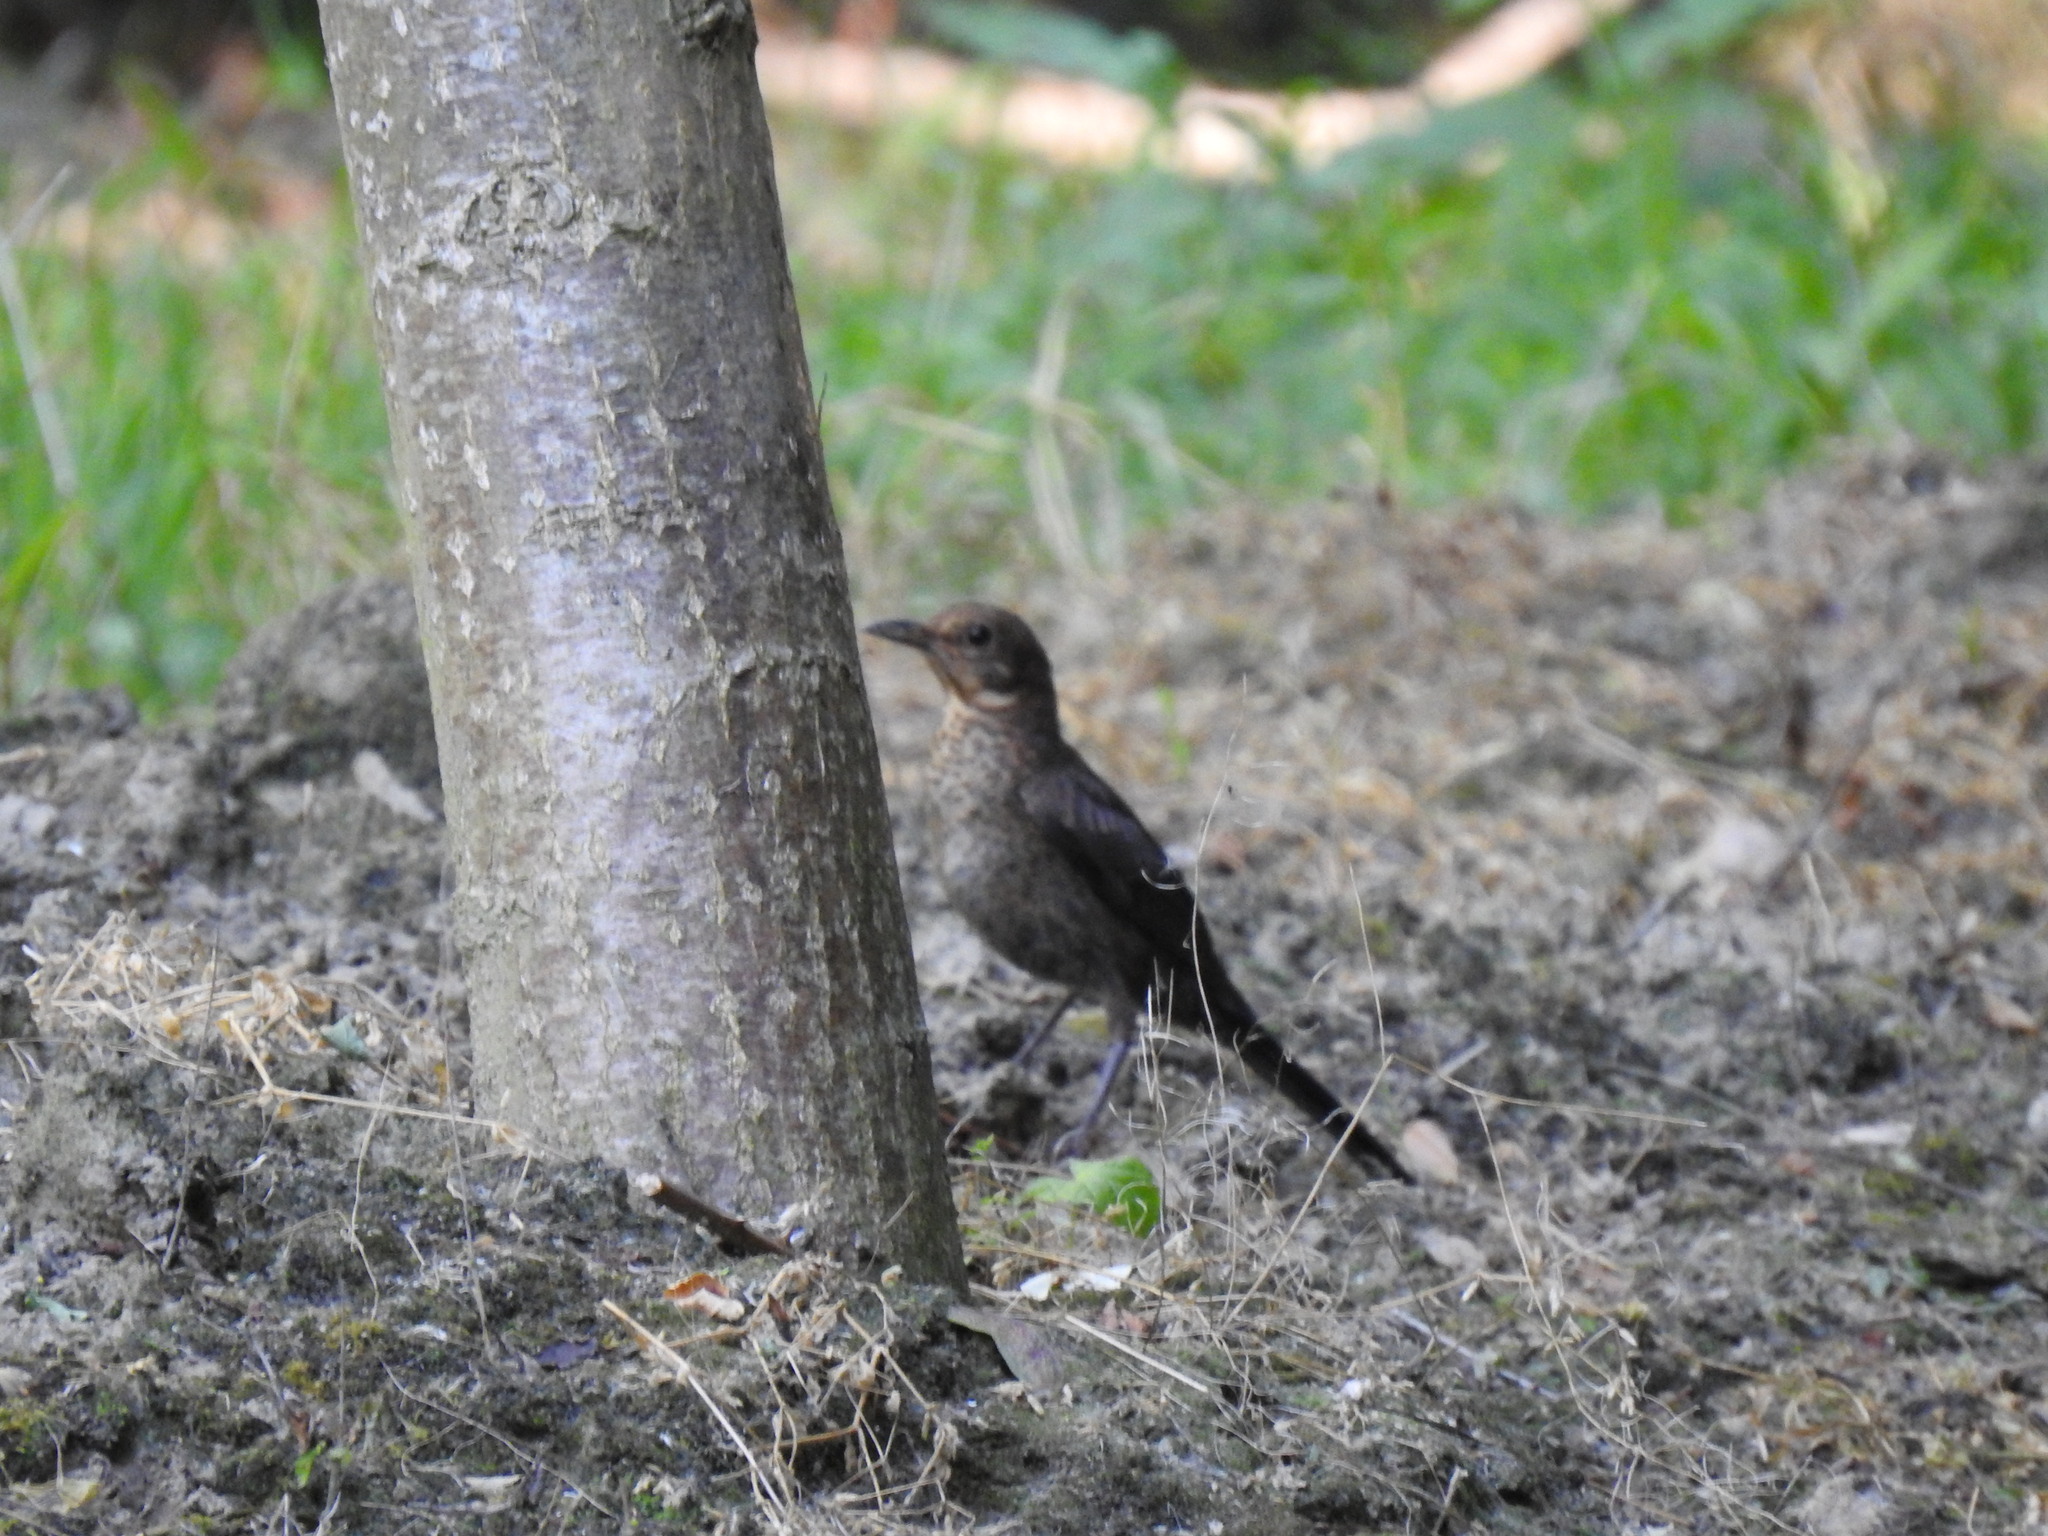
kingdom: Animalia
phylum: Chordata
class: Aves
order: Passeriformes
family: Turdidae
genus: Turdus
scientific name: Turdus merula
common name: Common blackbird
